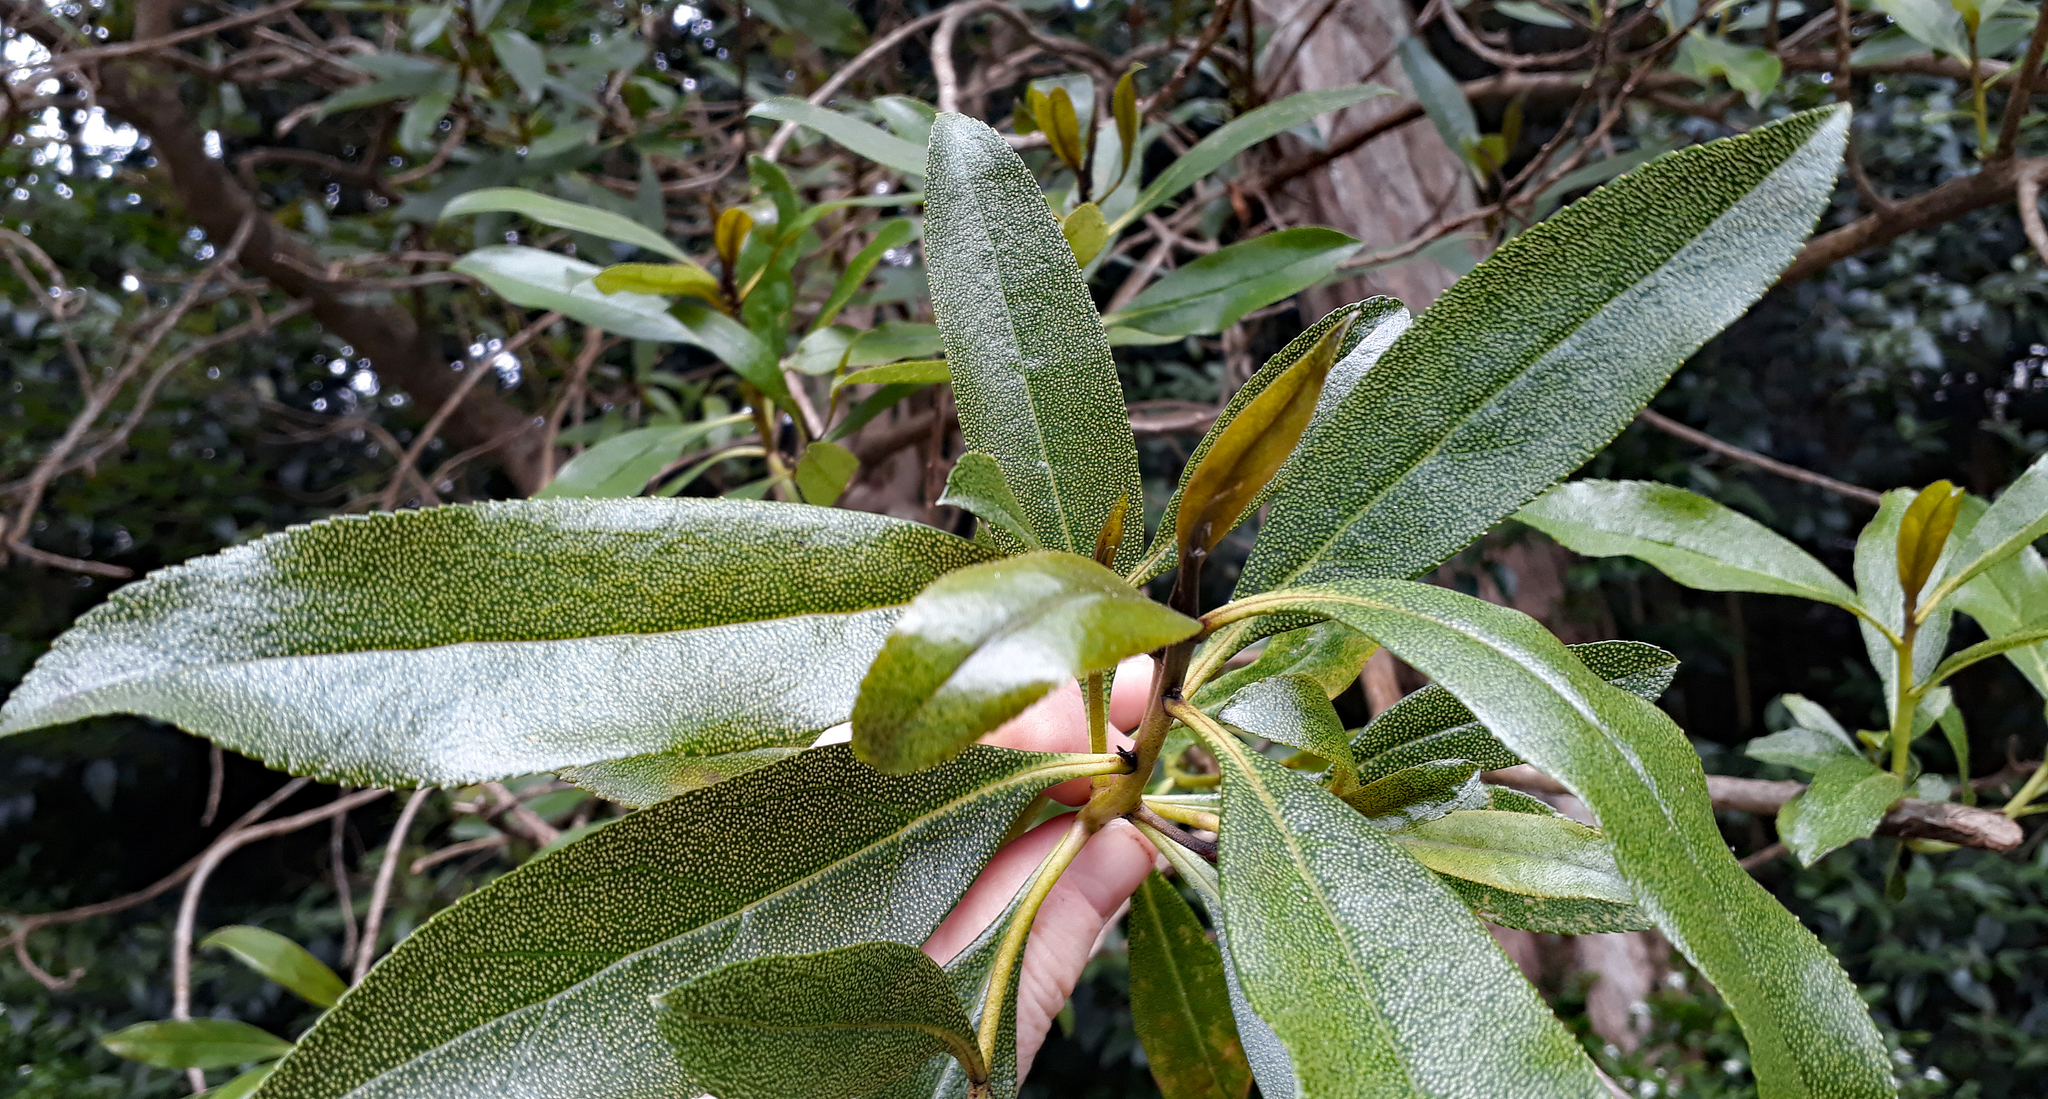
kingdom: Plantae
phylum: Tracheophyta
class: Magnoliopsida
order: Lamiales
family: Scrophulariaceae
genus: Myoporum
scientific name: Myoporum laetum
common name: Ngaio tree
